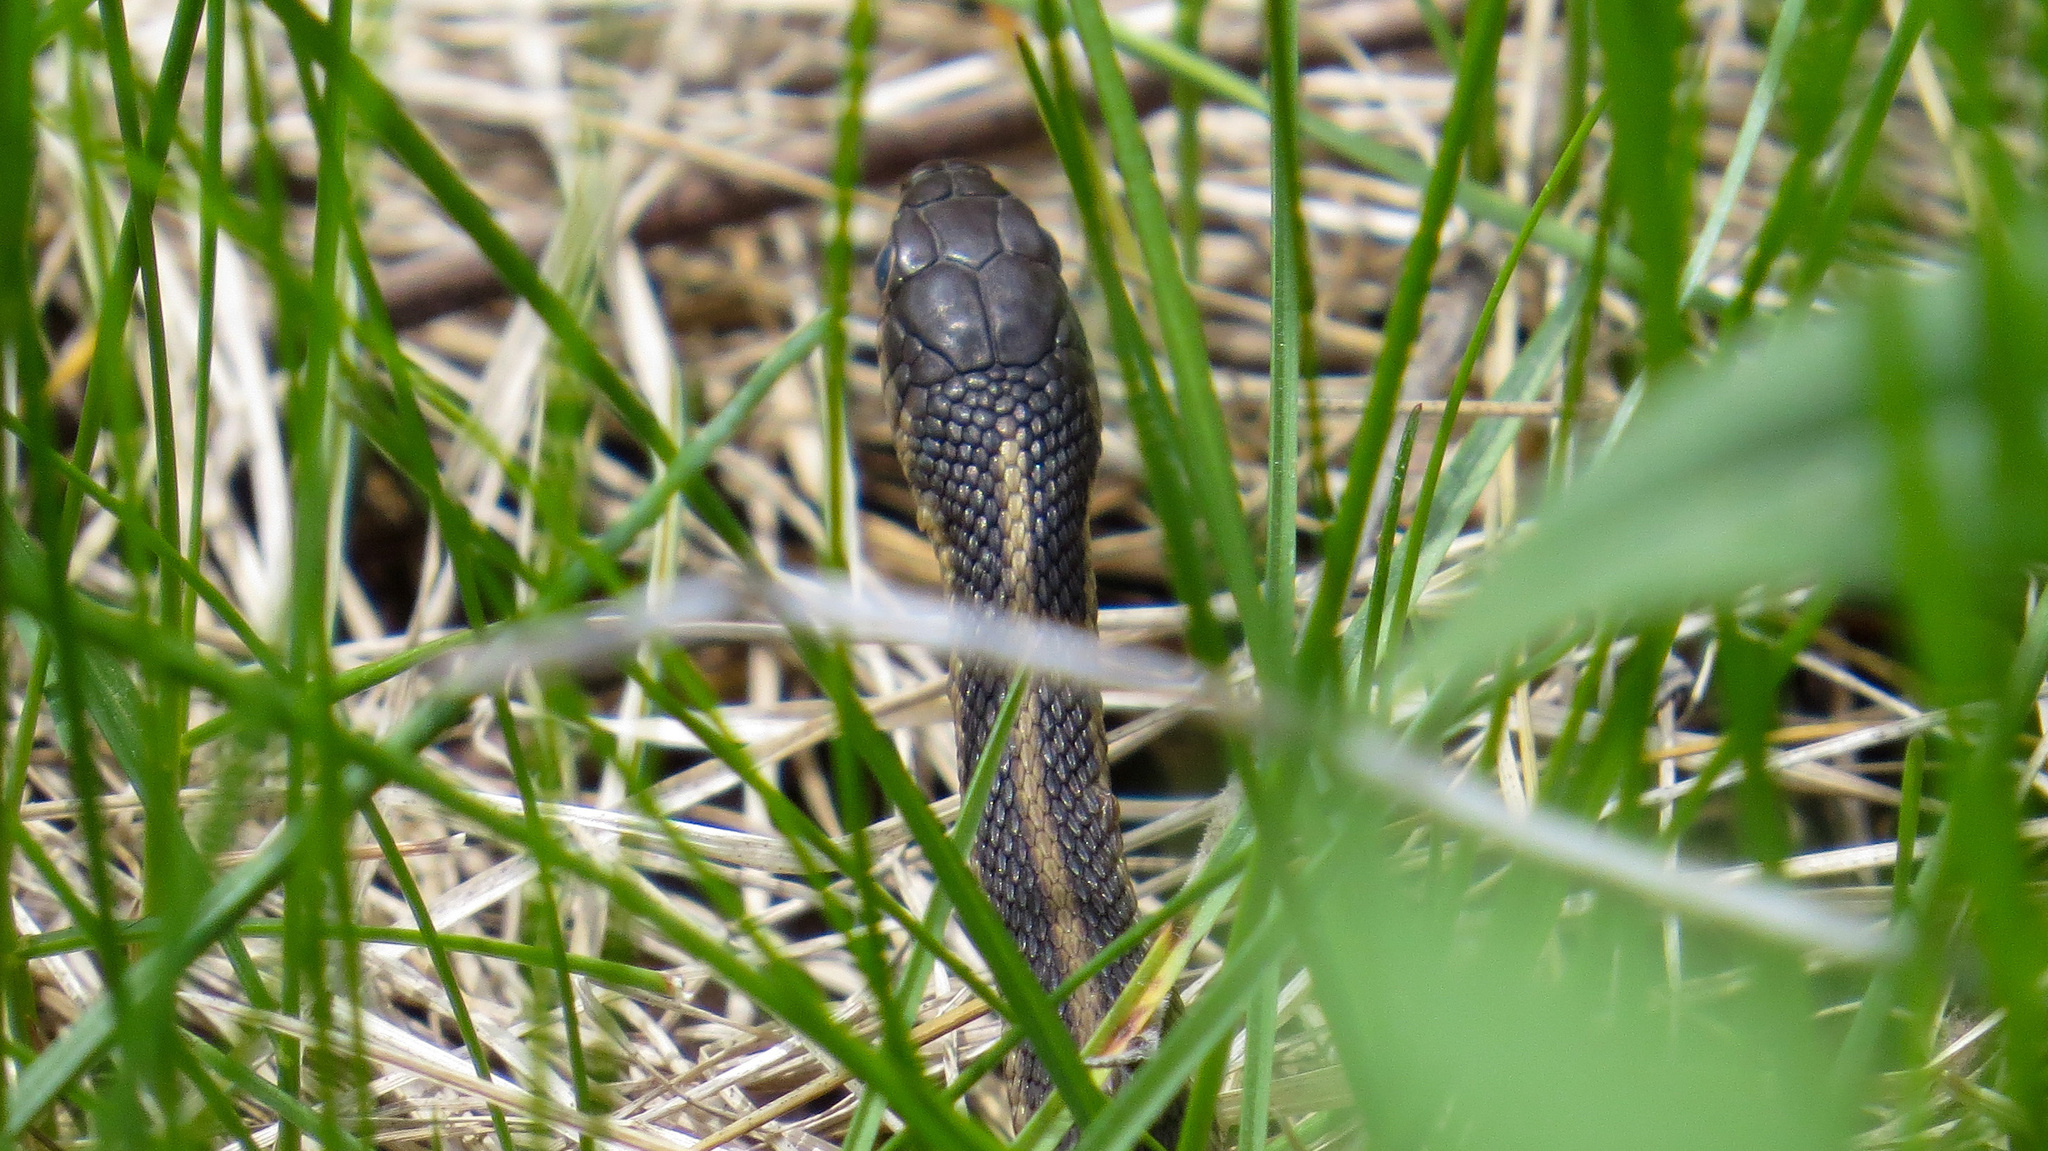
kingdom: Animalia
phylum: Chordata
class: Squamata
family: Colubridae
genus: Thamnophis
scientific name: Thamnophis sirtalis
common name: Common garter snake
